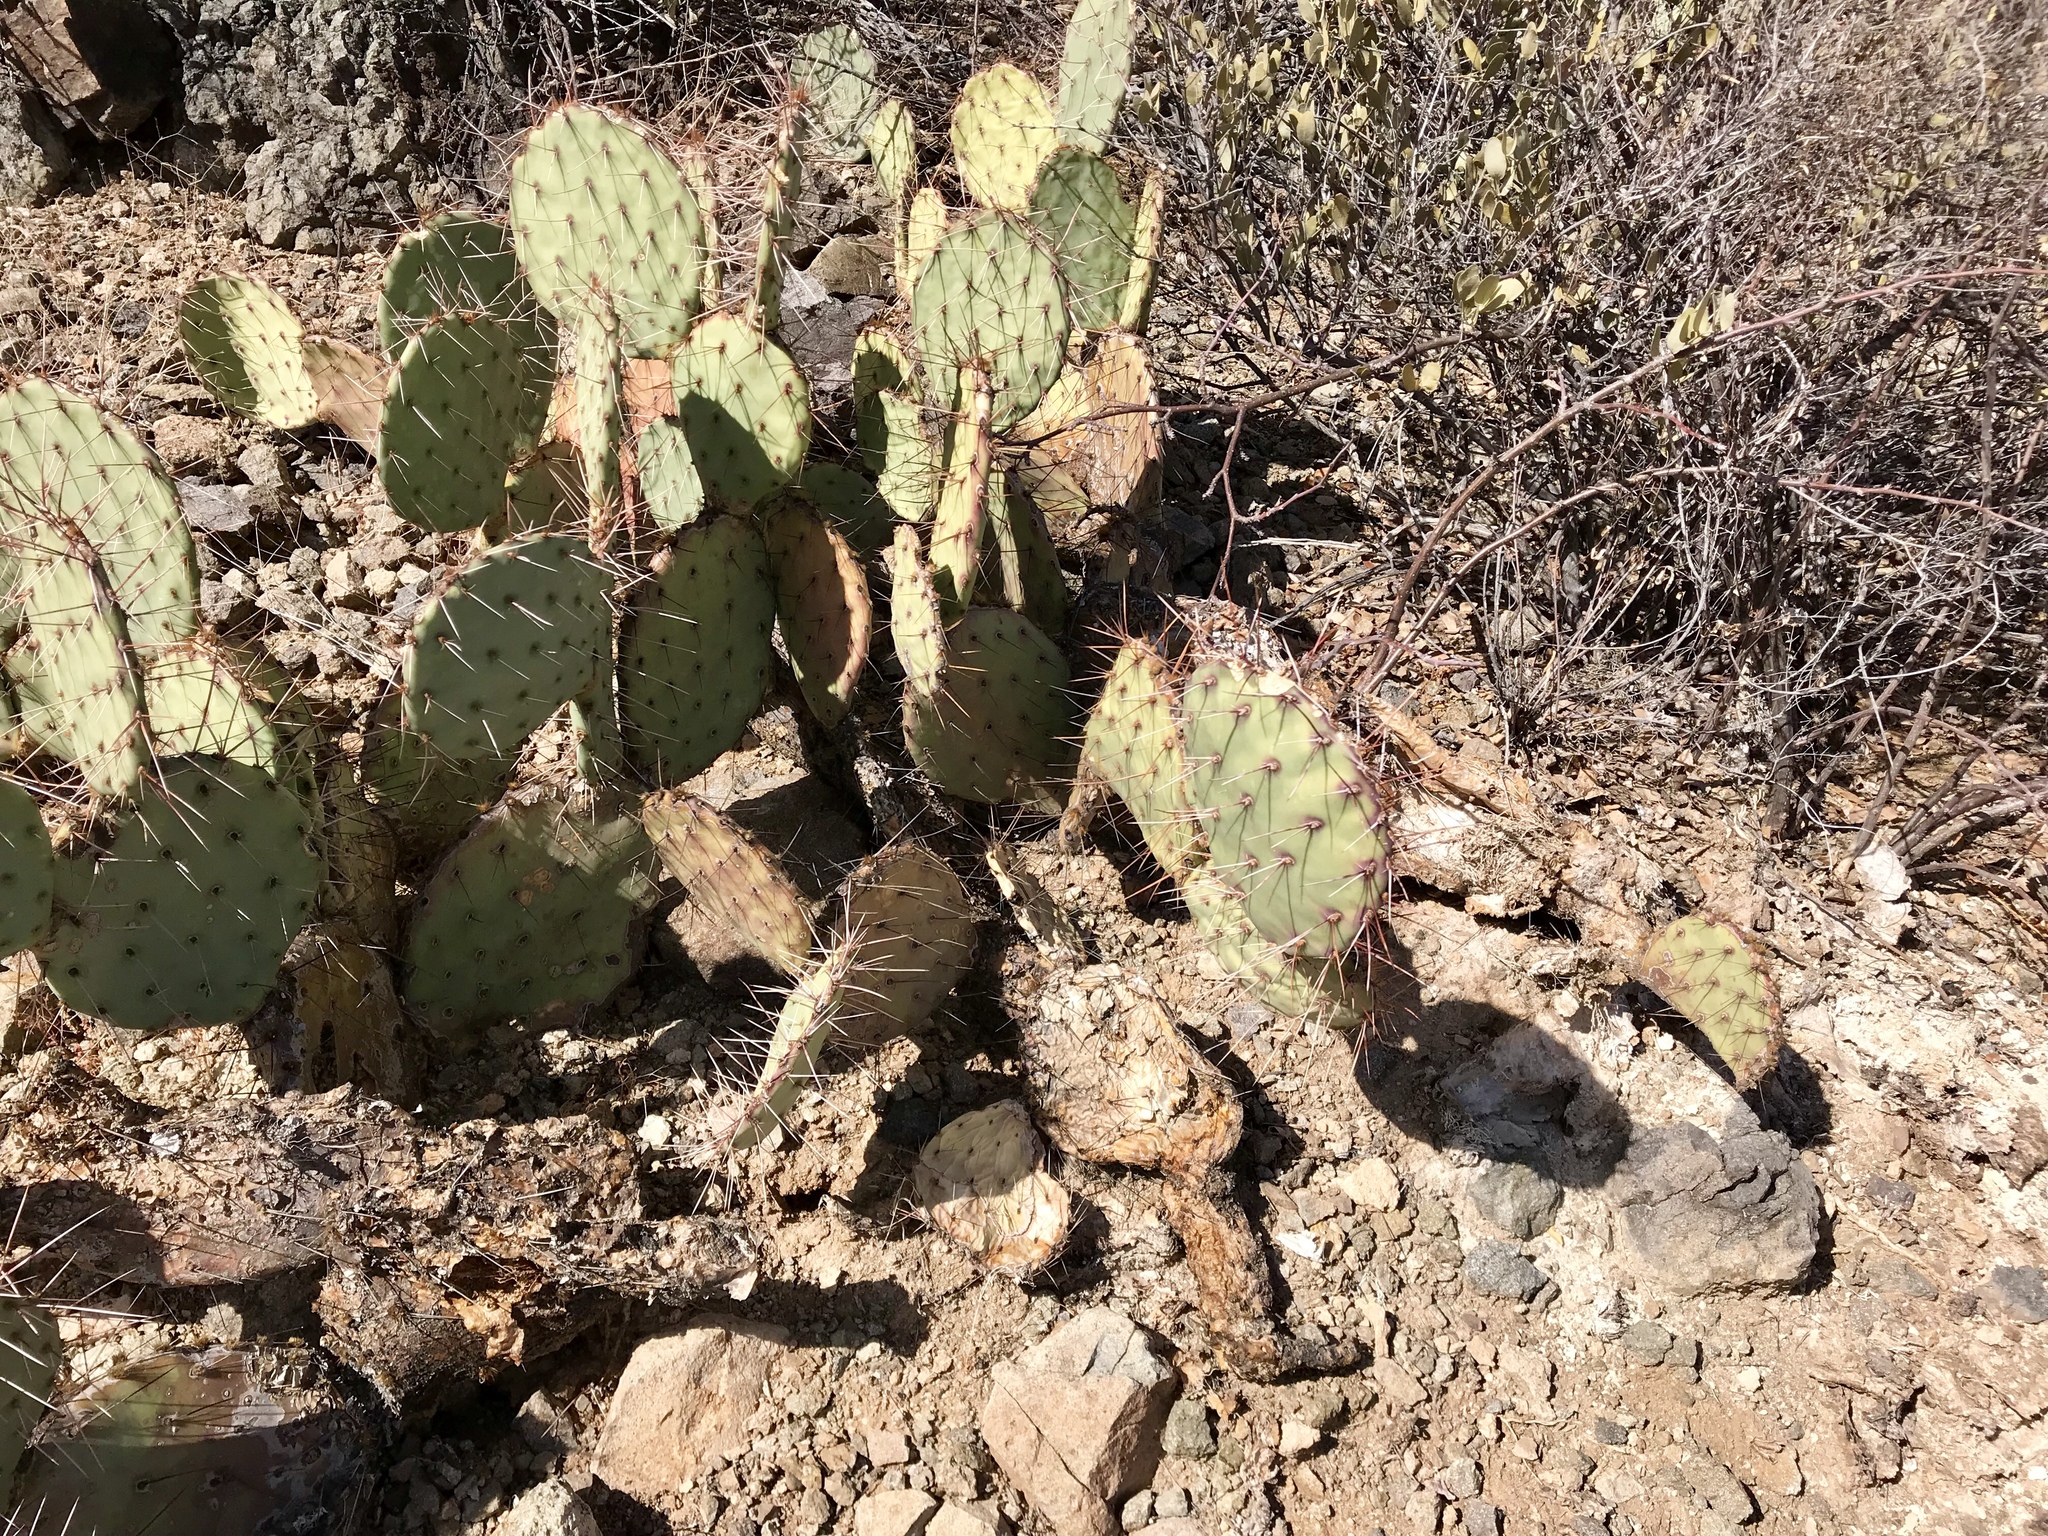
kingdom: Plantae
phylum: Tracheophyta
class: Magnoliopsida
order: Caryophyllales
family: Cactaceae
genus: Opuntia
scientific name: Opuntia engelmannii
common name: Cactus-apple
